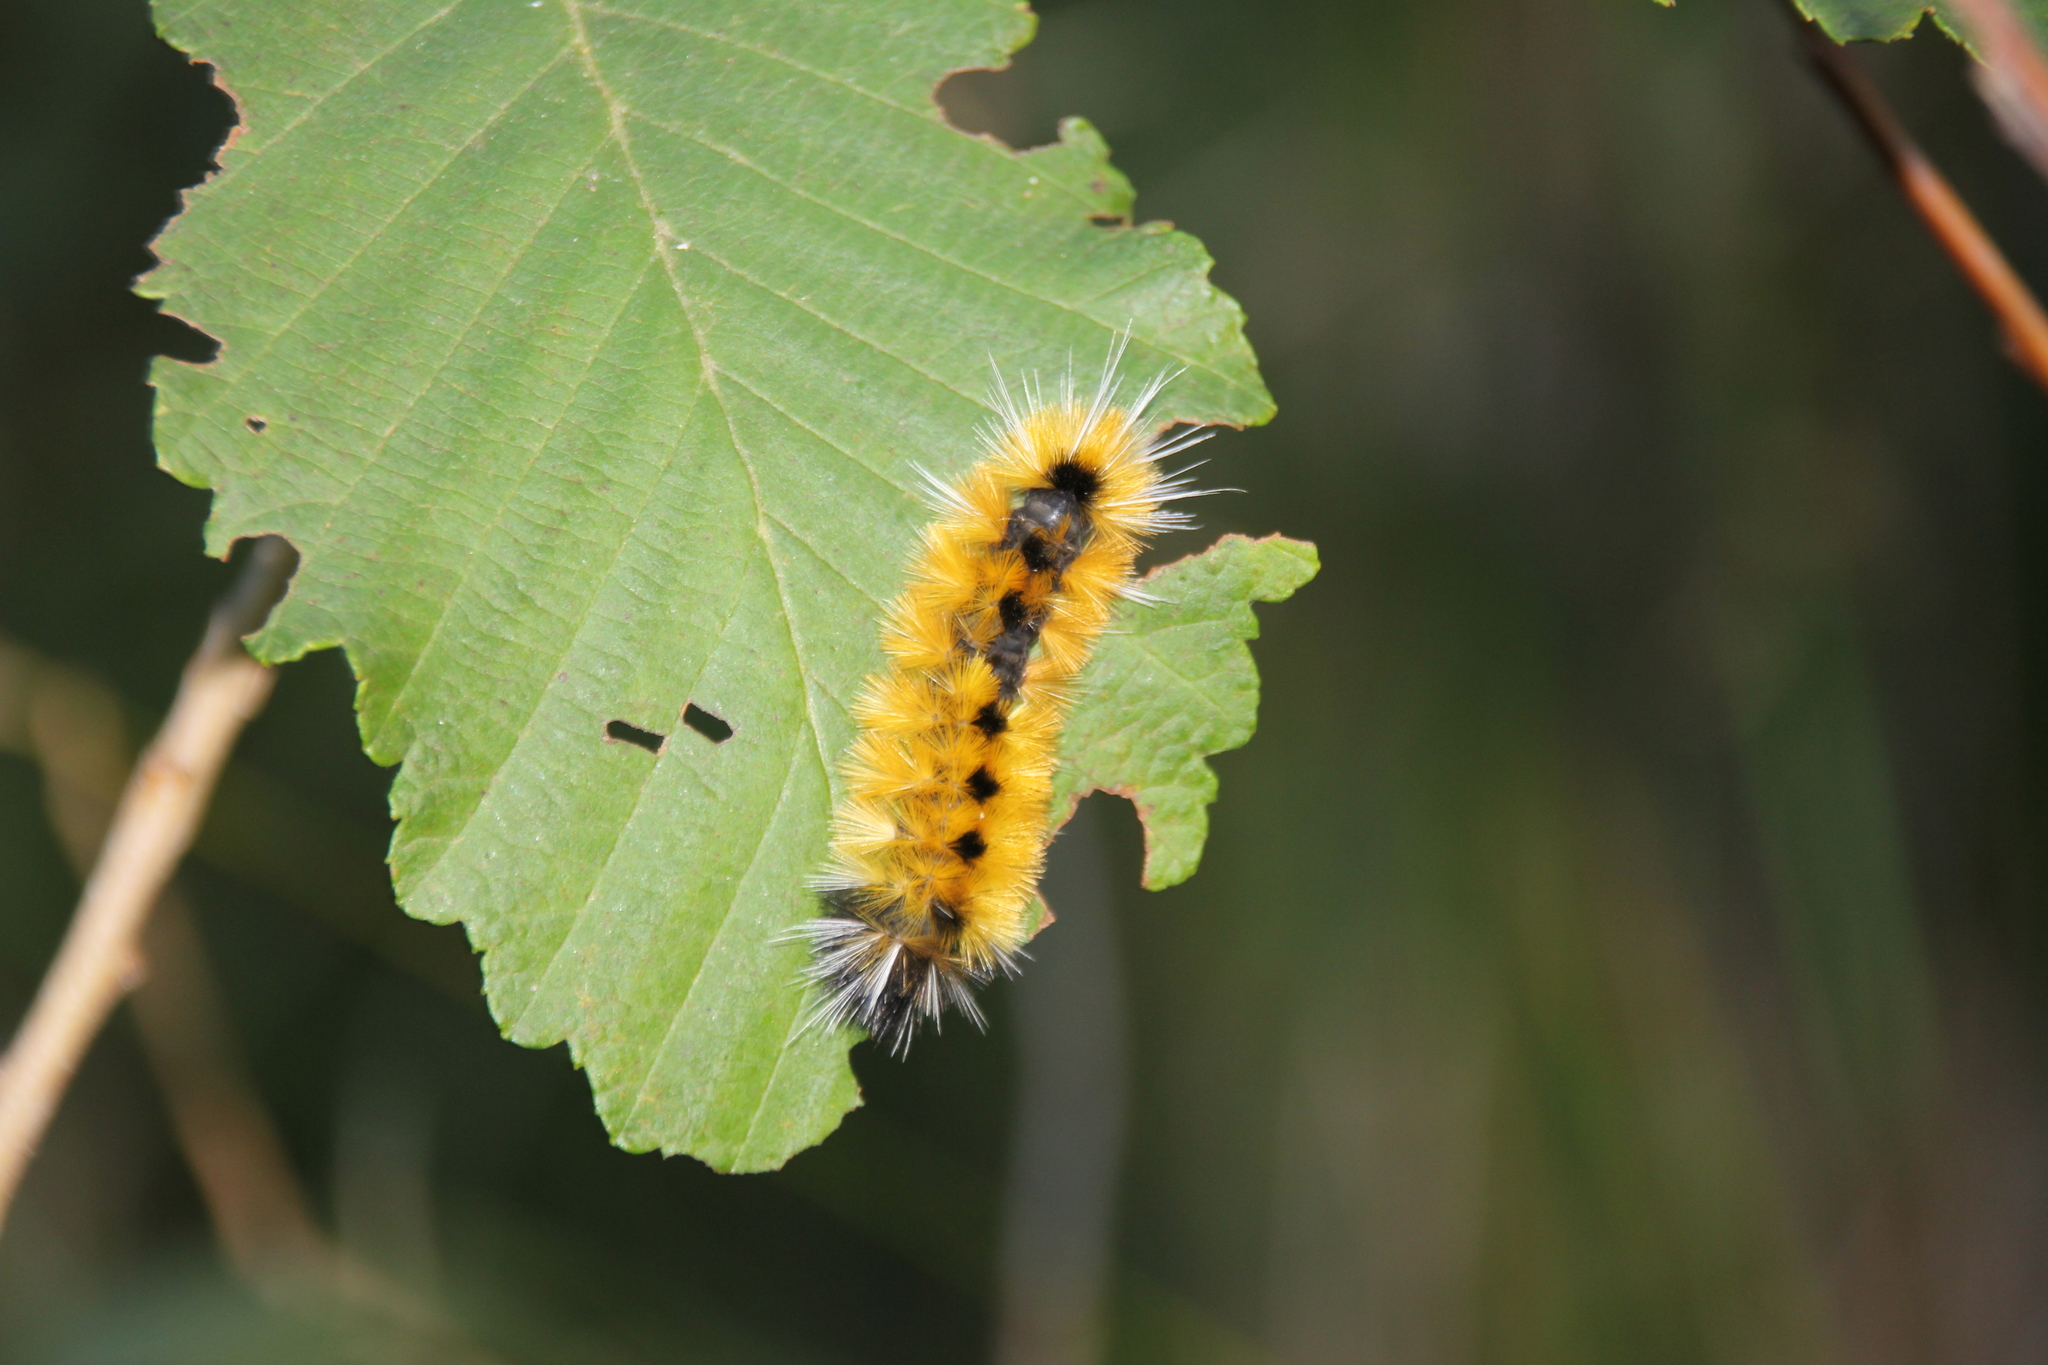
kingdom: Animalia
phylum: Arthropoda
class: Insecta
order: Lepidoptera
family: Erebidae
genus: Lophocampa
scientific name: Lophocampa maculata
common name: Spotted tussock moth
